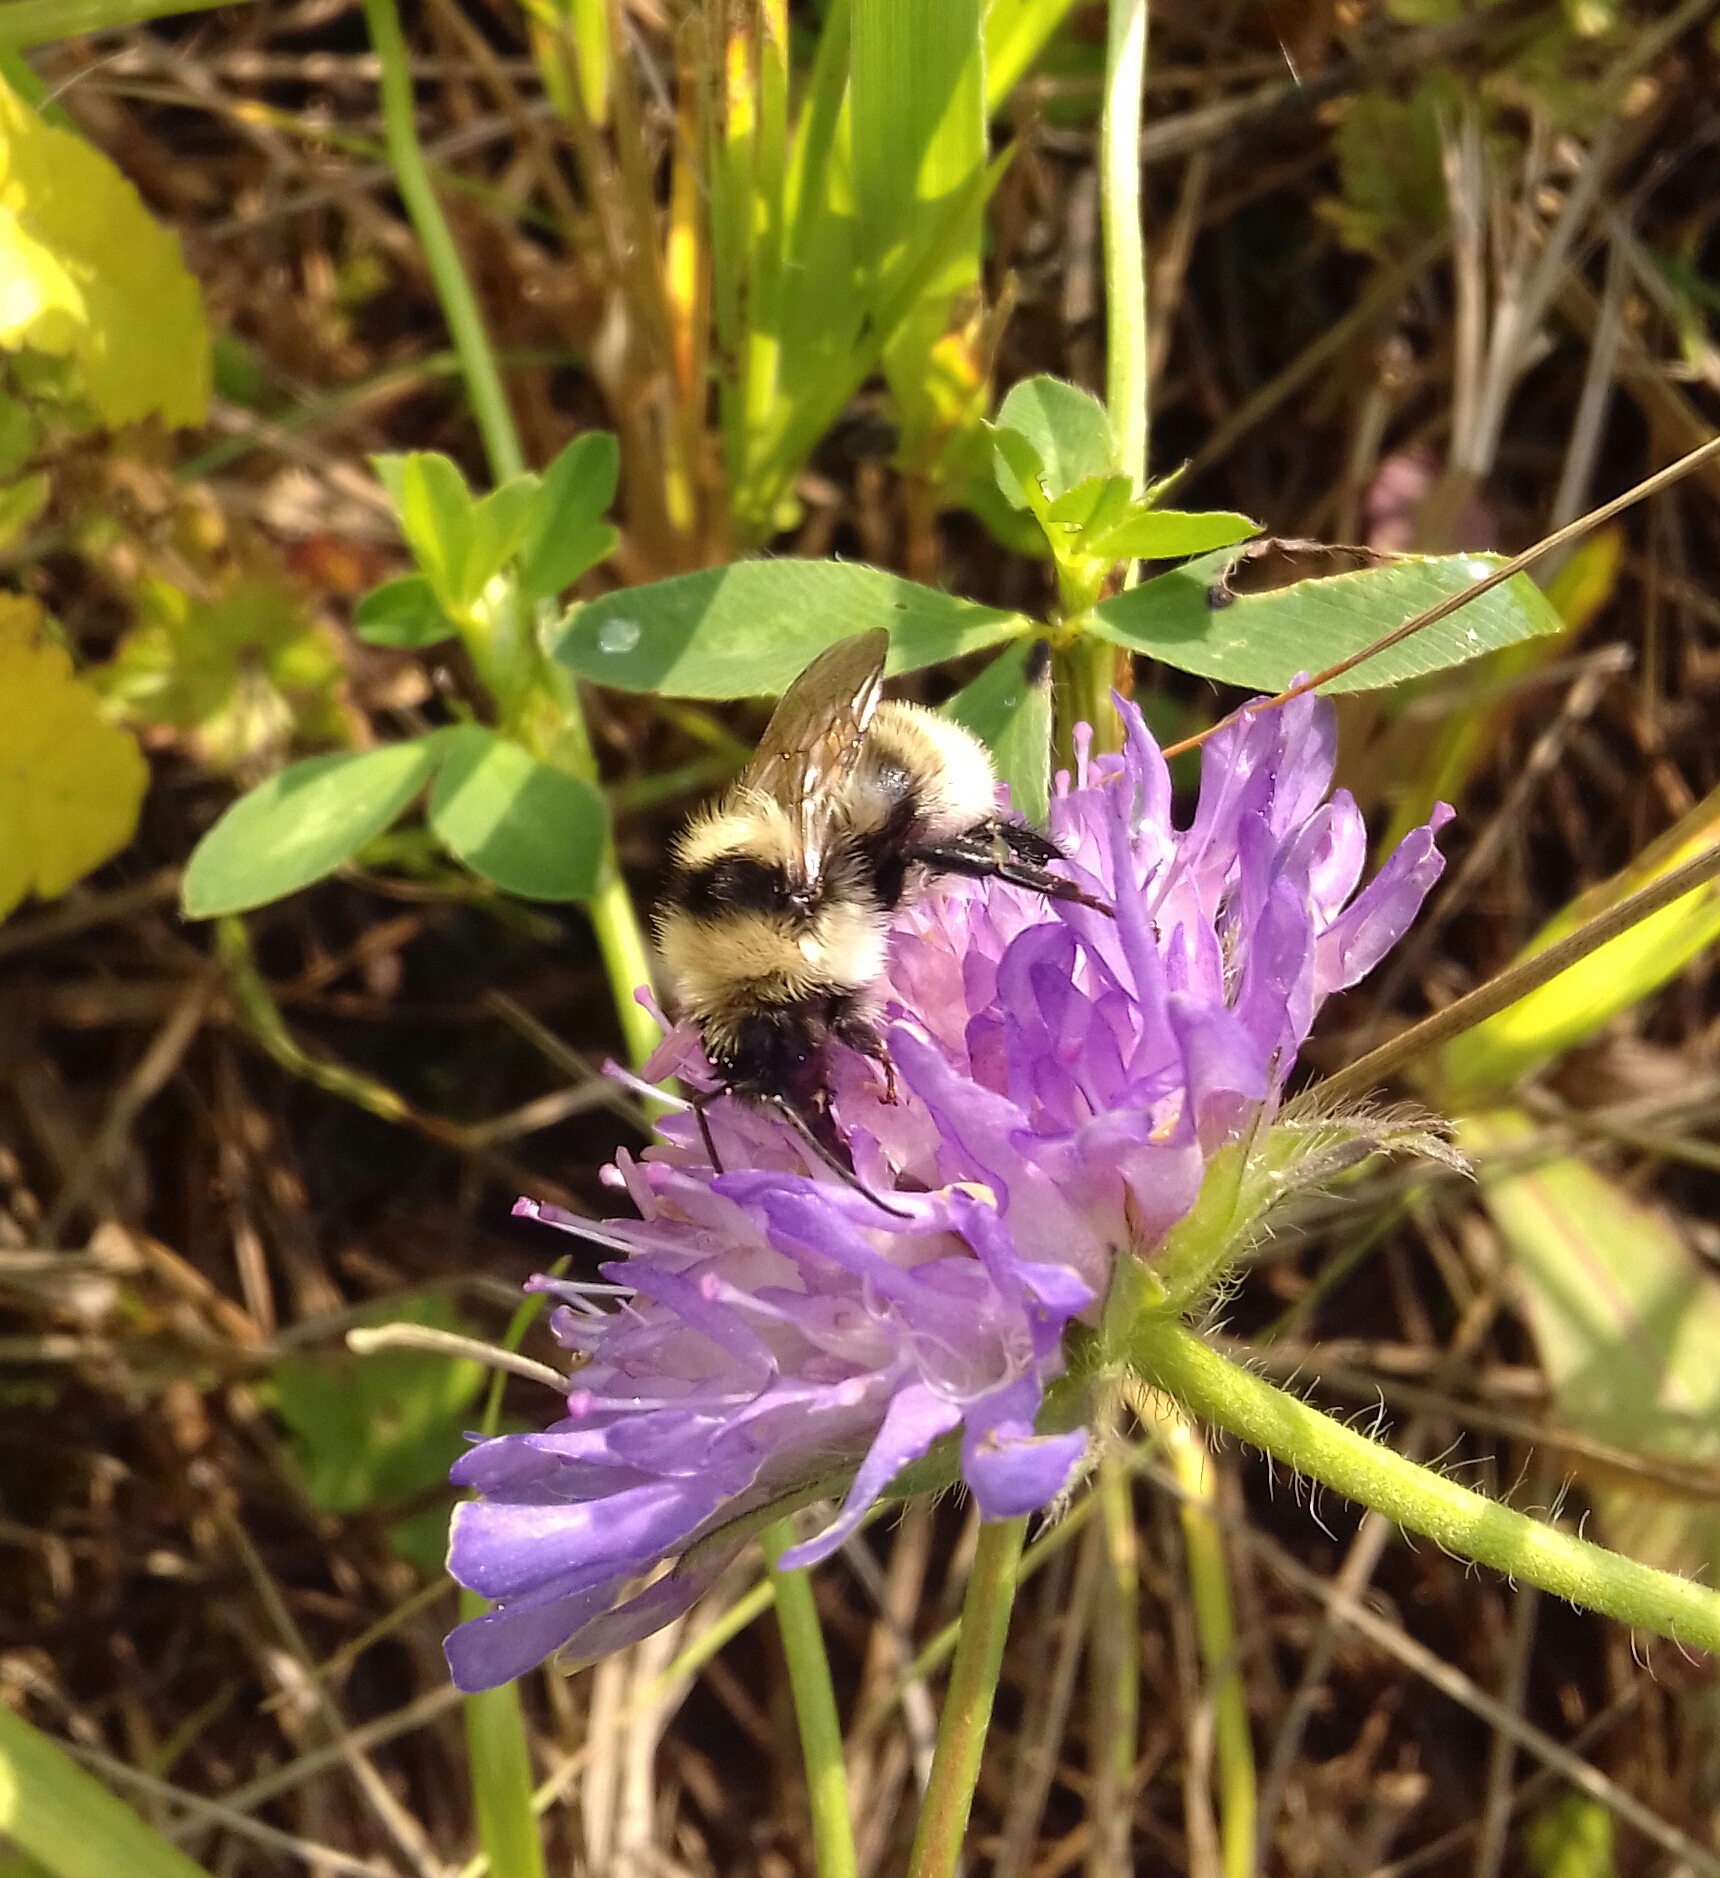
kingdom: Animalia
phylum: Arthropoda
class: Insecta
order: Hymenoptera
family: Apidae
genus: Bombus
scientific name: Bombus subterraneus
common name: Short-haired humble-bee
